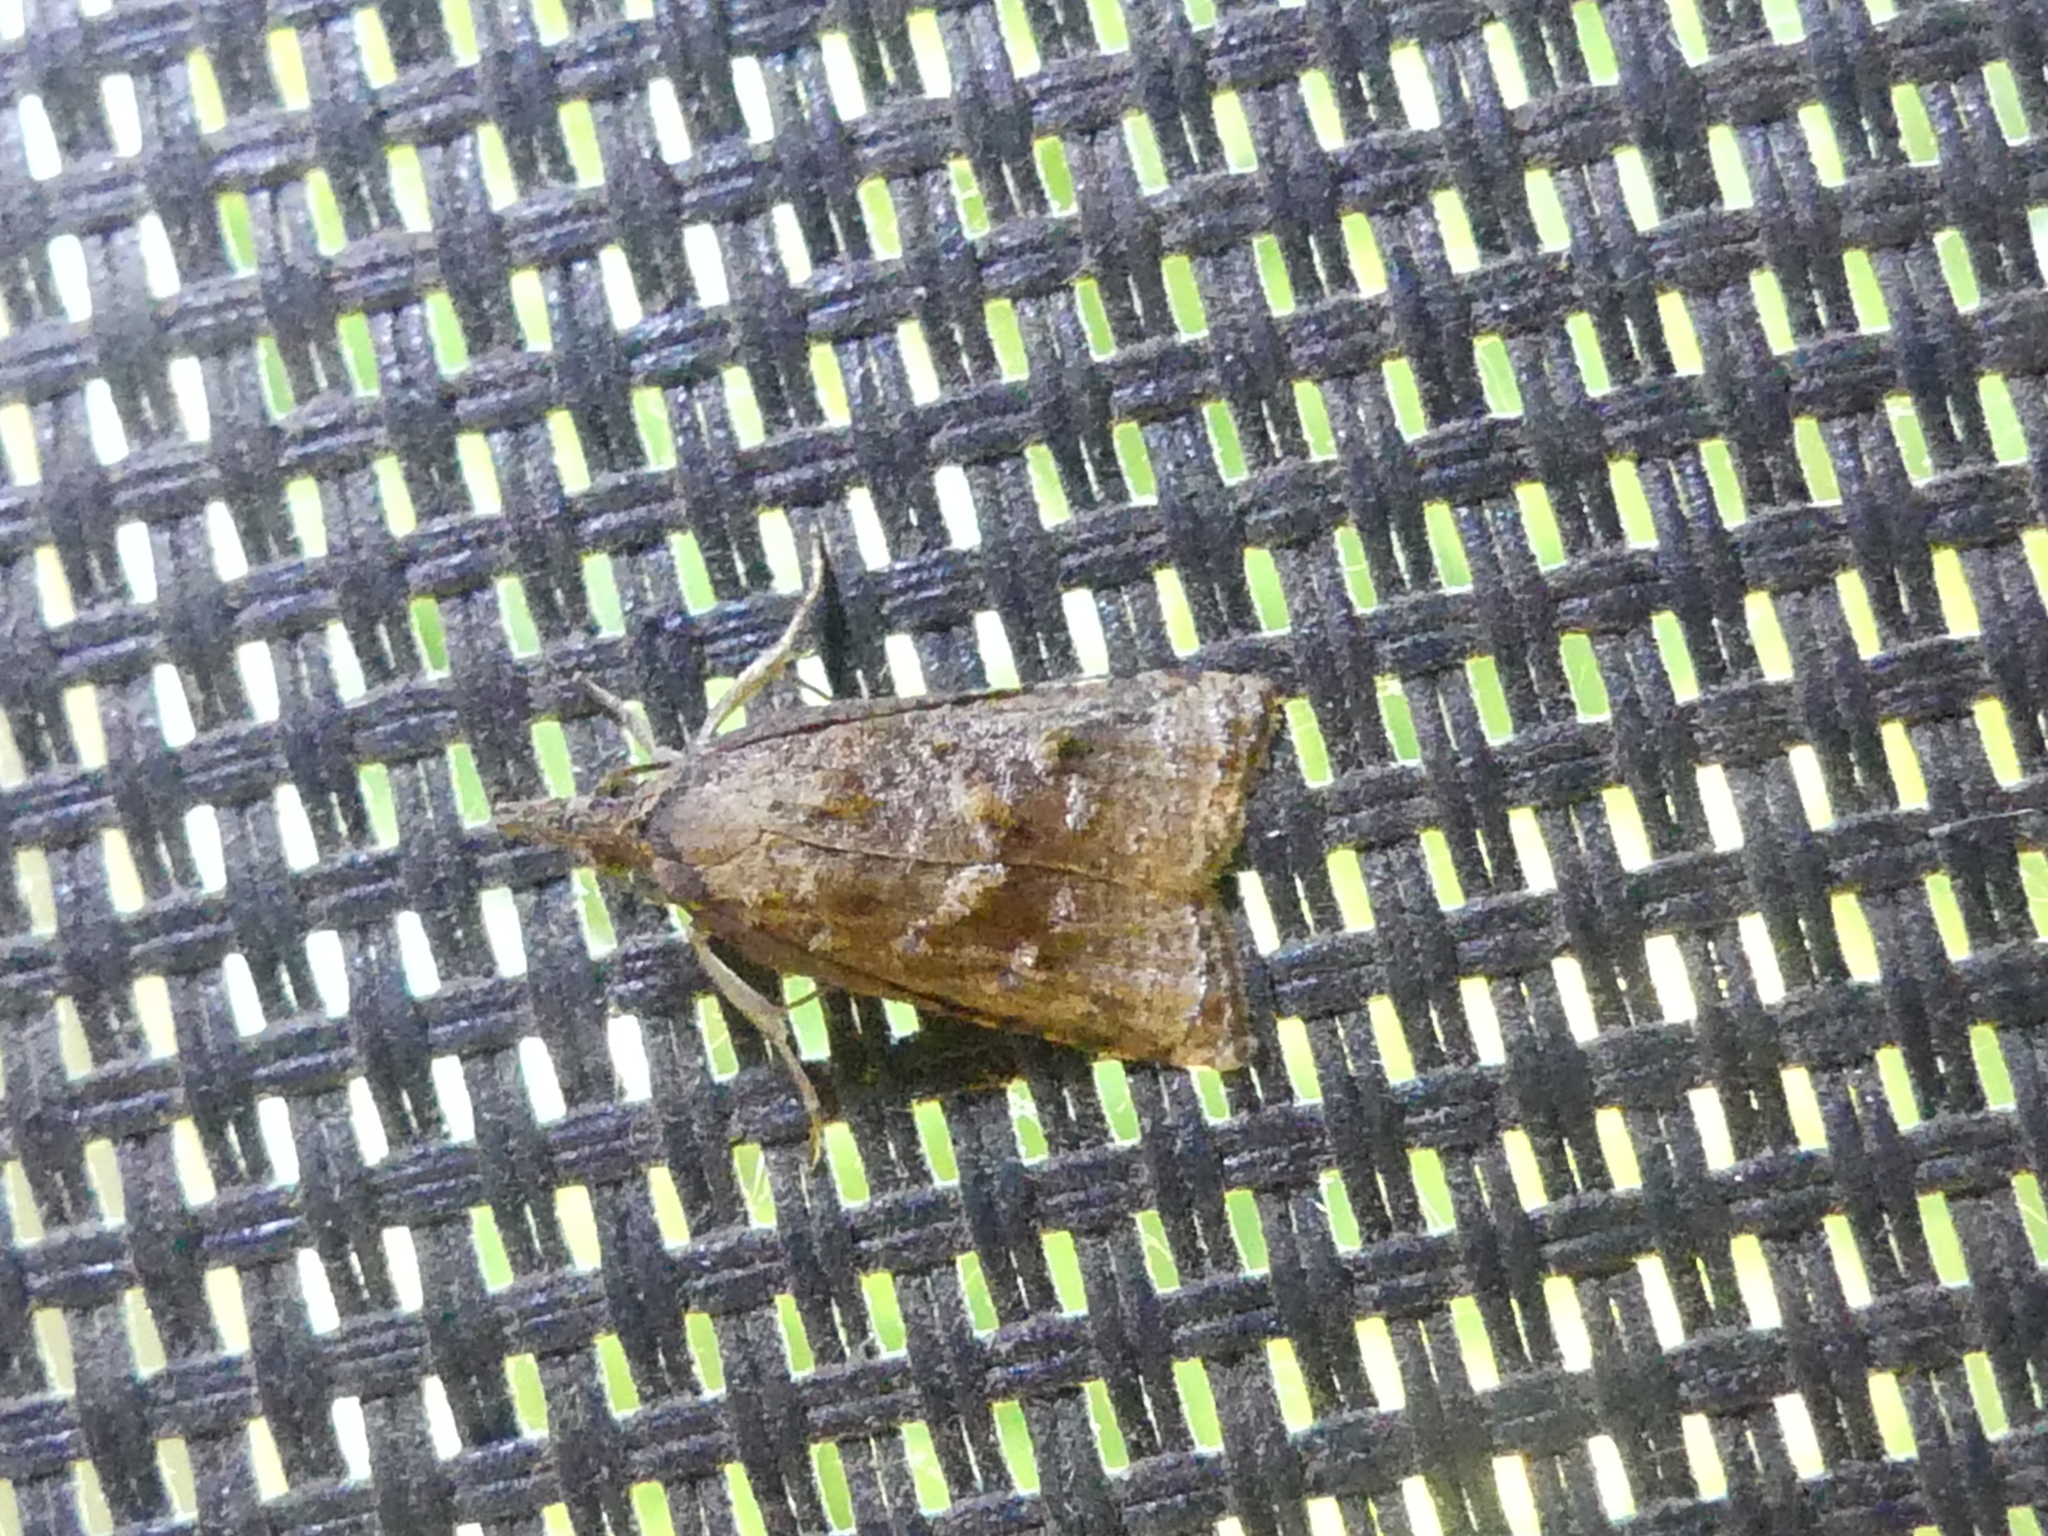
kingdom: Animalia
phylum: Arthropoda
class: Insecta
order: Lepidoptera
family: Tortricidae
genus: Platynota
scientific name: Platynota flavedana
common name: Black-shaded platynota moth
